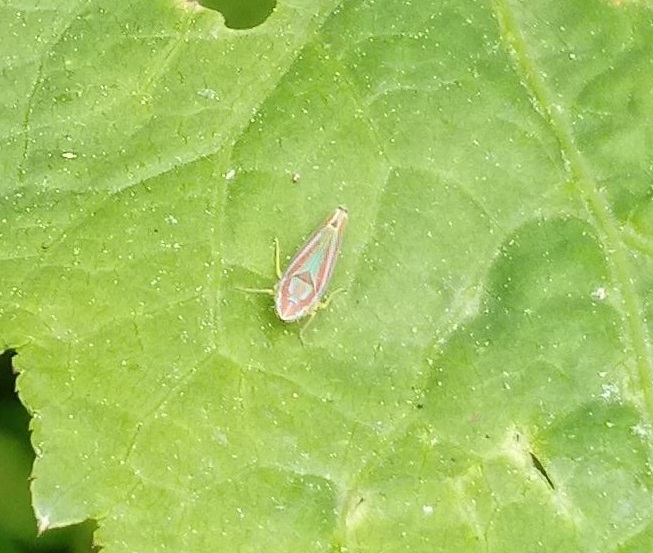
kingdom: Animalia
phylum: Arthropoda
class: Insecta
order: Hemiptera
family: Cicadellidae
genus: Graphocephala
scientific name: Graphocephala versuta
